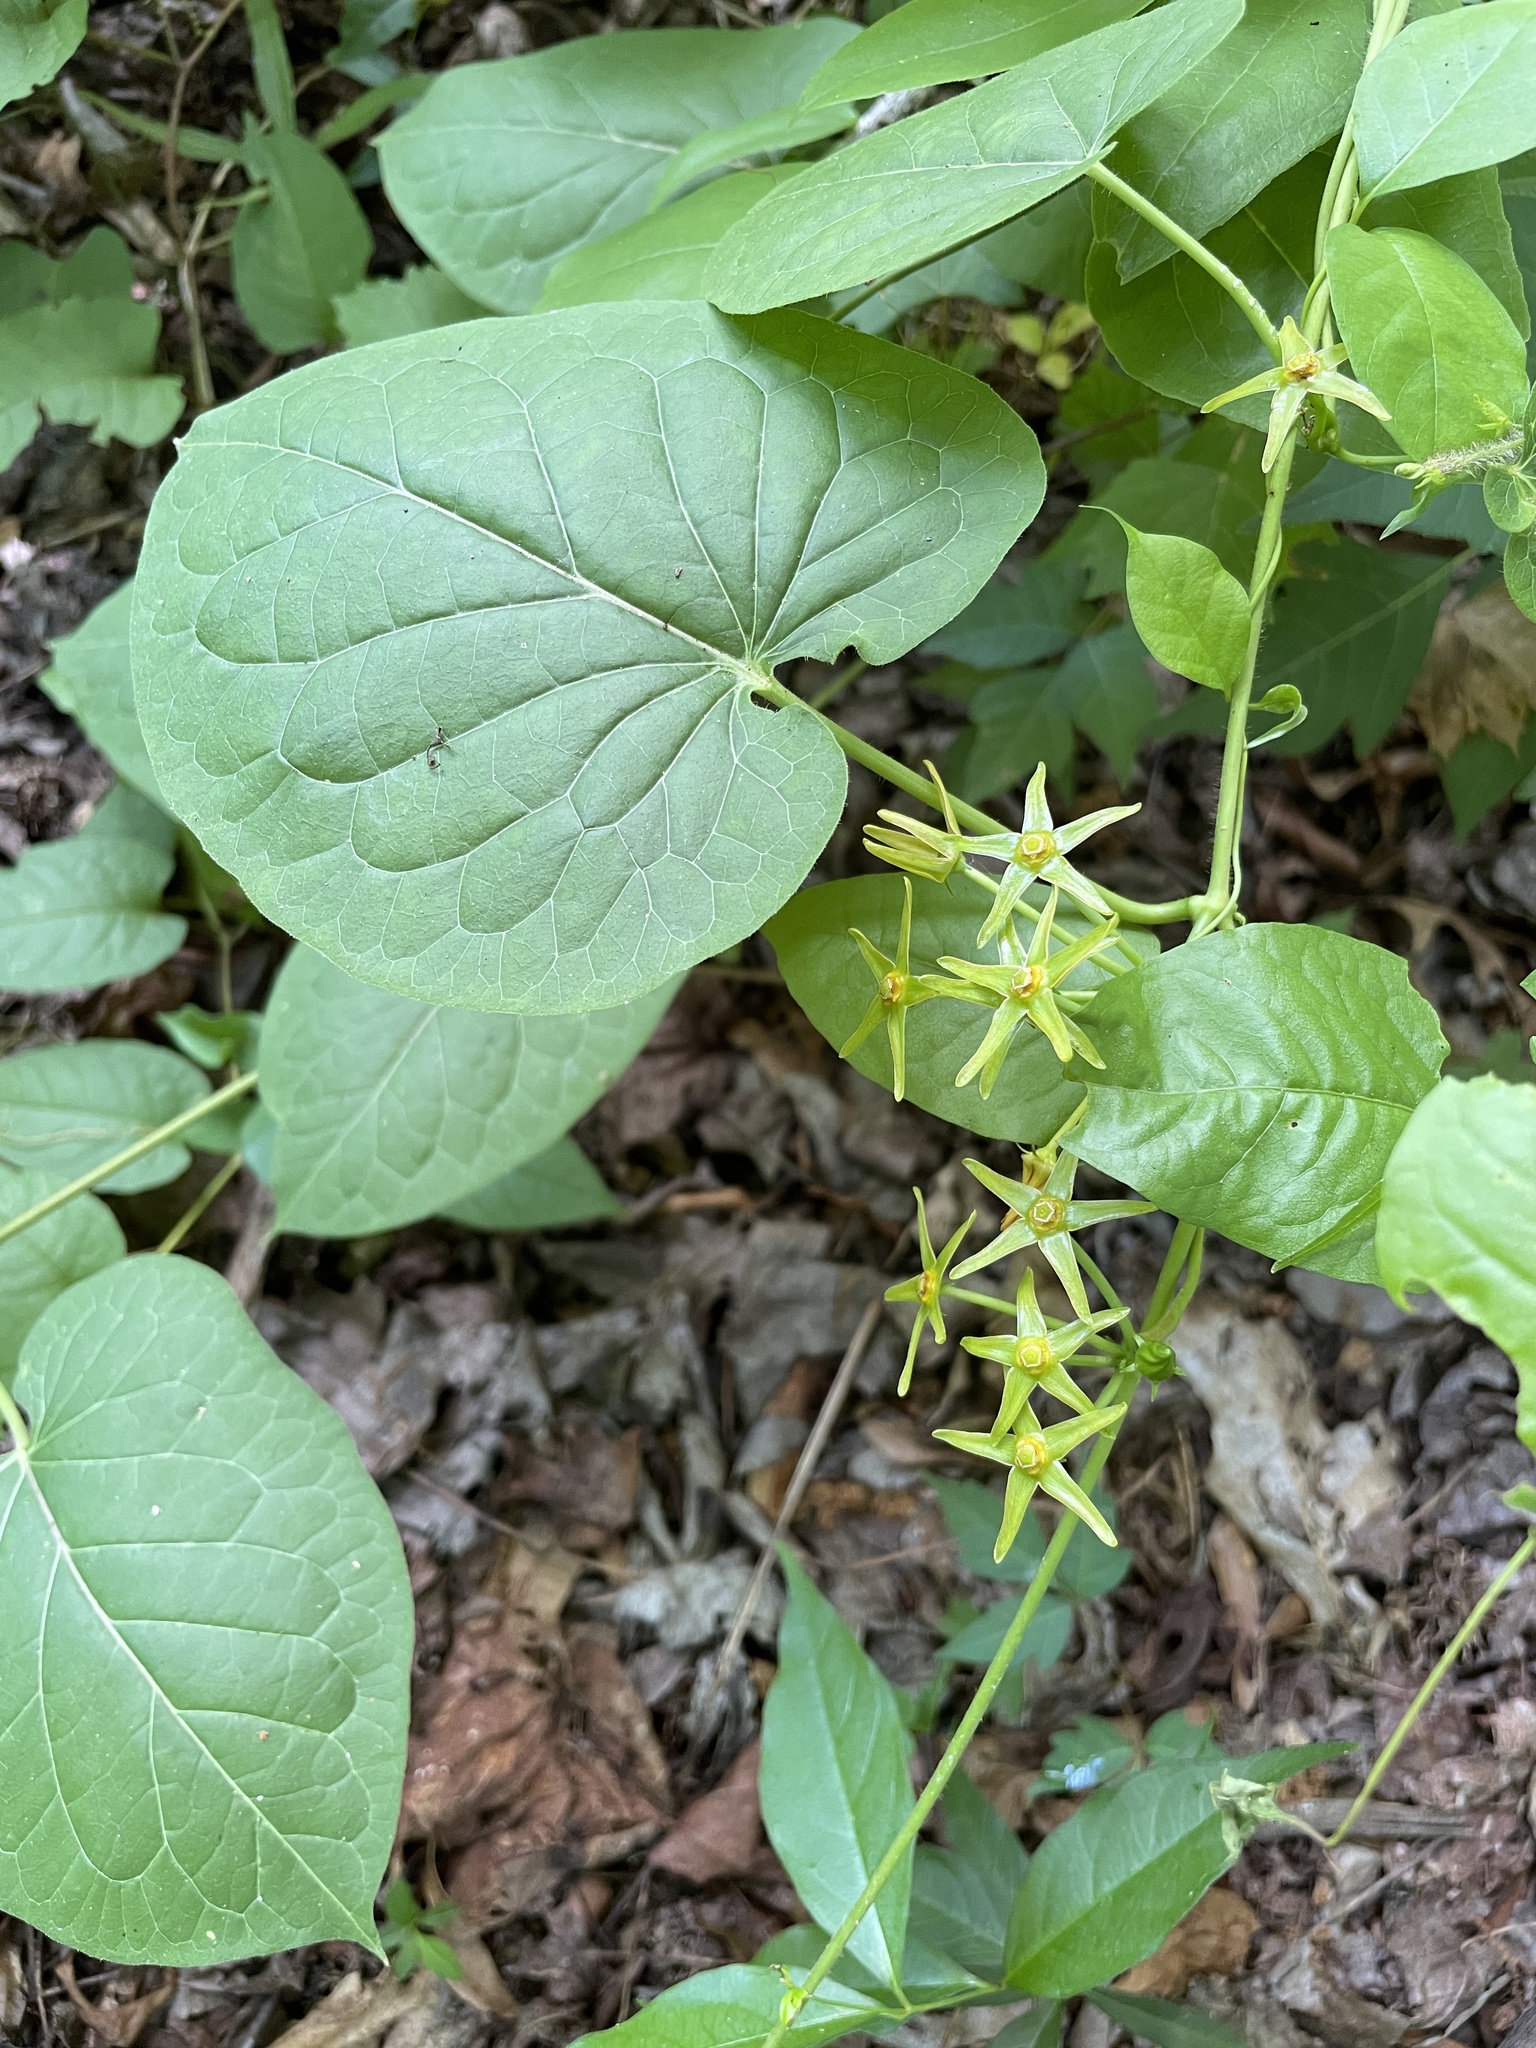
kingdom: Plantae
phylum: Tracheophyta
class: Magnoliopsida
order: Gentianales
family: Apocynaceae
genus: Gonolobus
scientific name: Gonolobus suberosus
